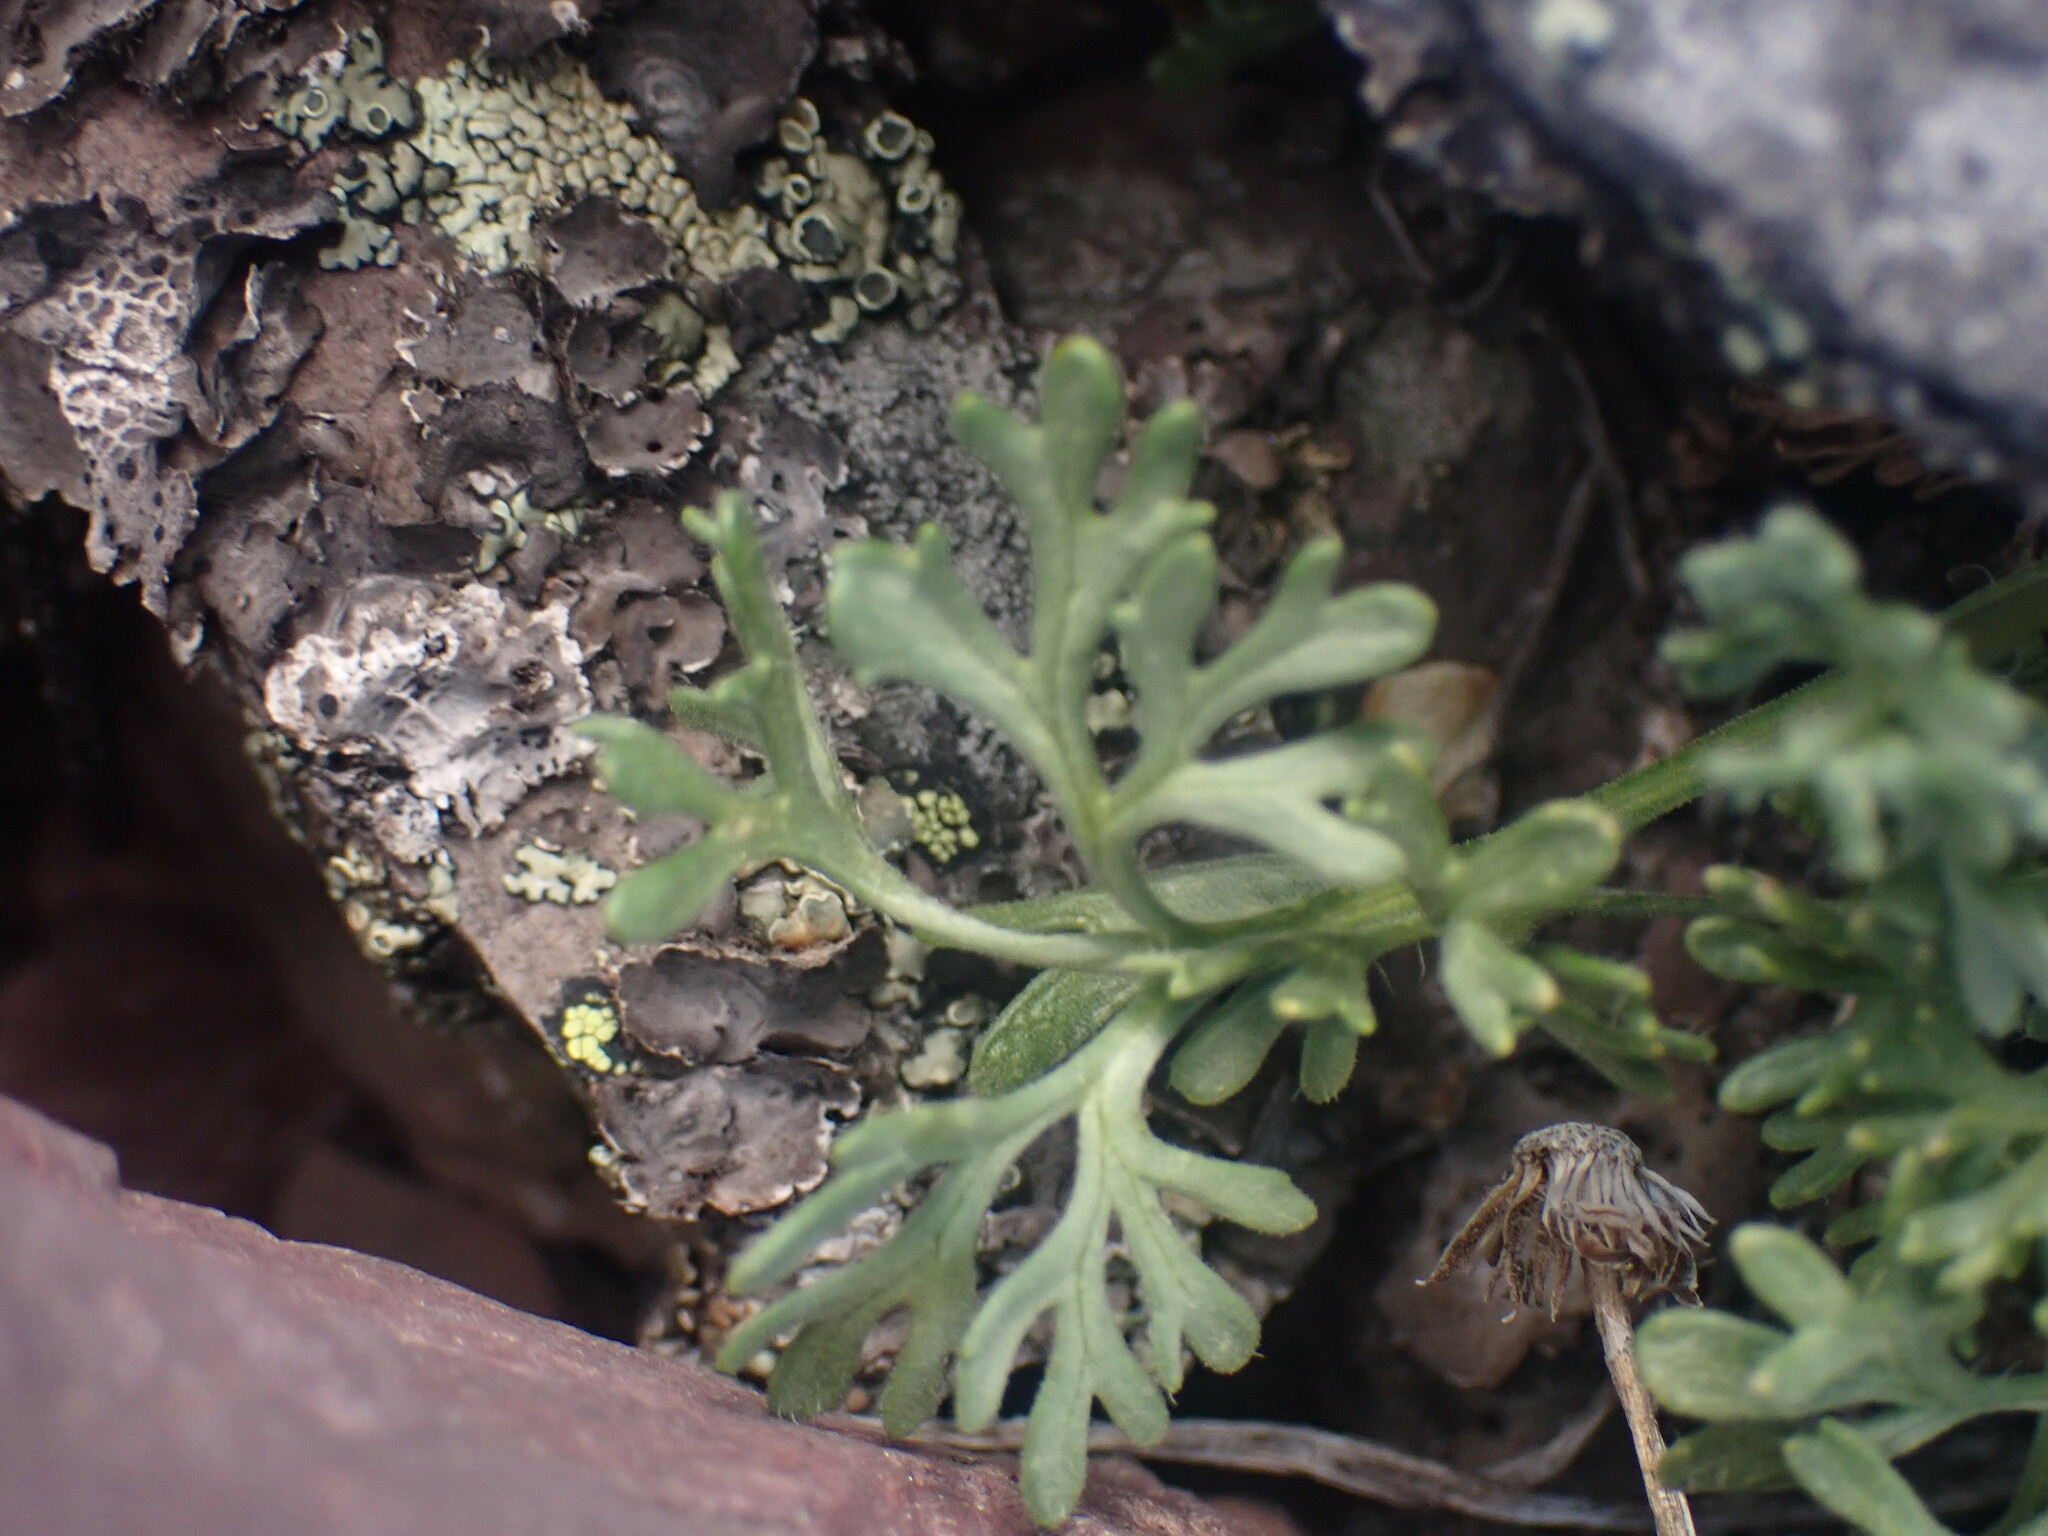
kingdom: Plantae
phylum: Tracheophyta
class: Magnoliopsida
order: Asterales
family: Asteraceae
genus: Erigeron
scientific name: Erigeron compositus
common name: Dwarf mountain fleabane
